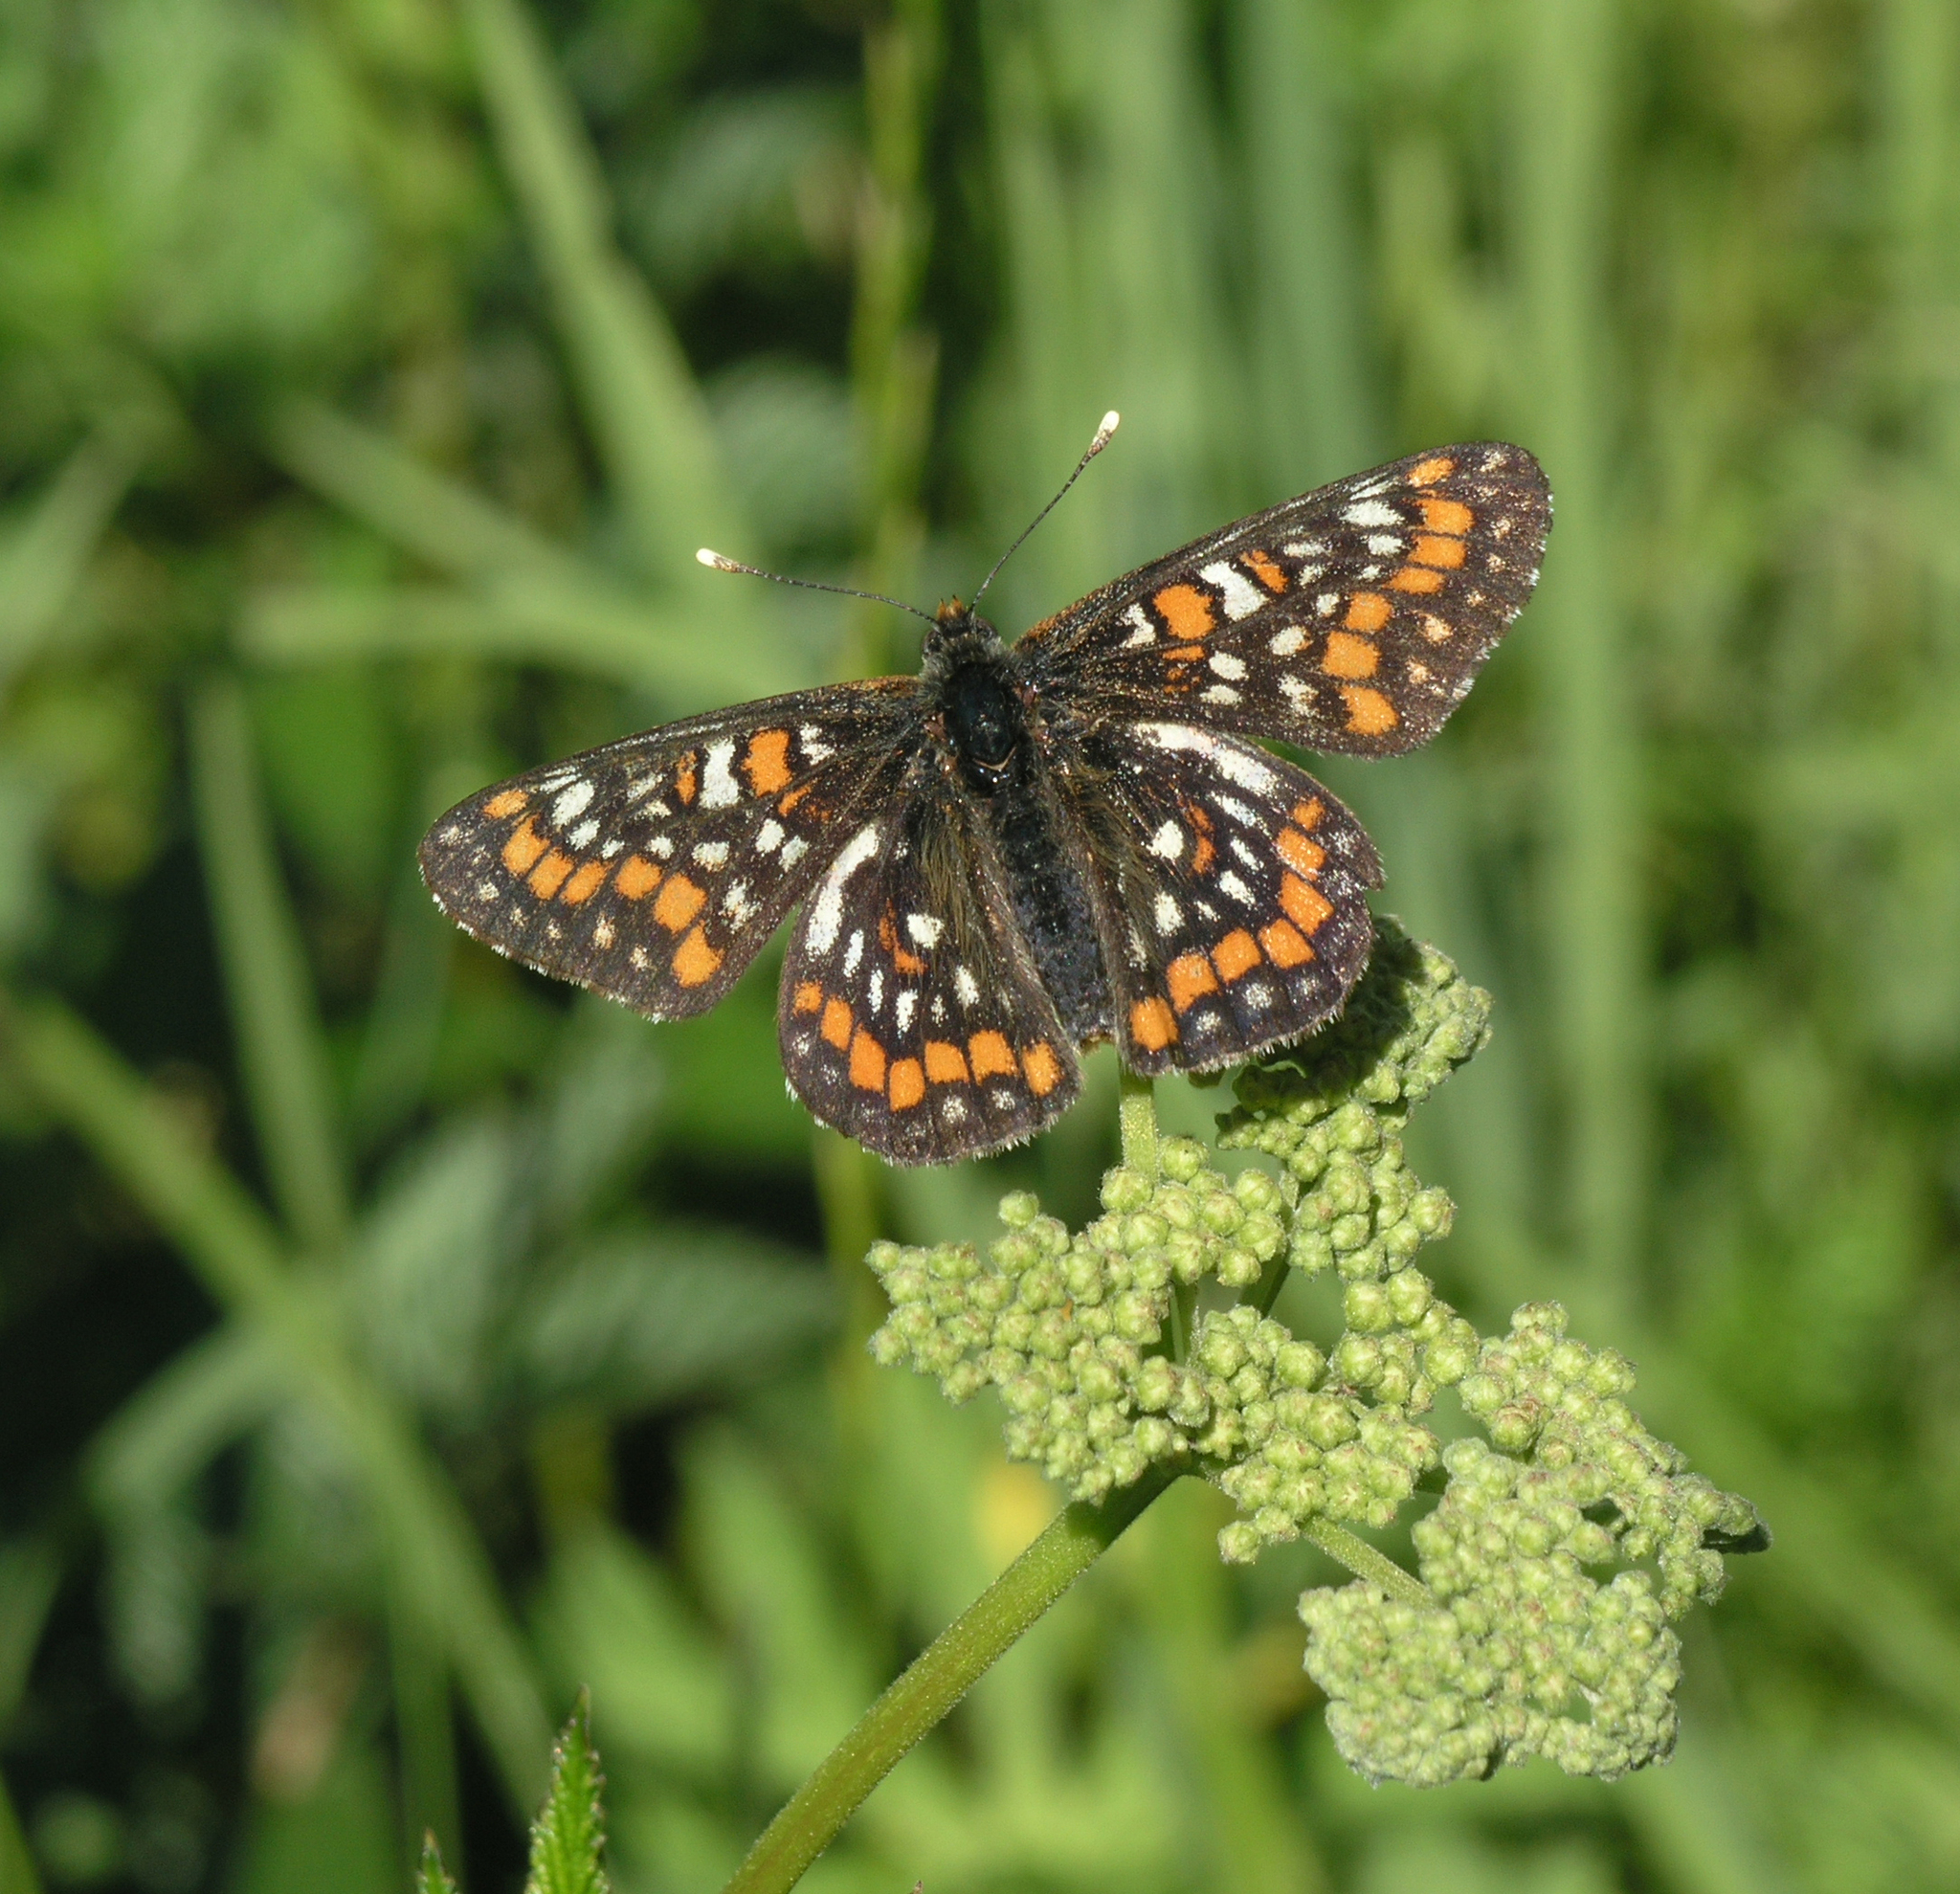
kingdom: Plantae
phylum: Tracheophyta
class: Magnoliopsida
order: Rosales
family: Rosaceae
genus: Filipendula
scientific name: Filipendula ulmaria
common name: Meadowsweet
